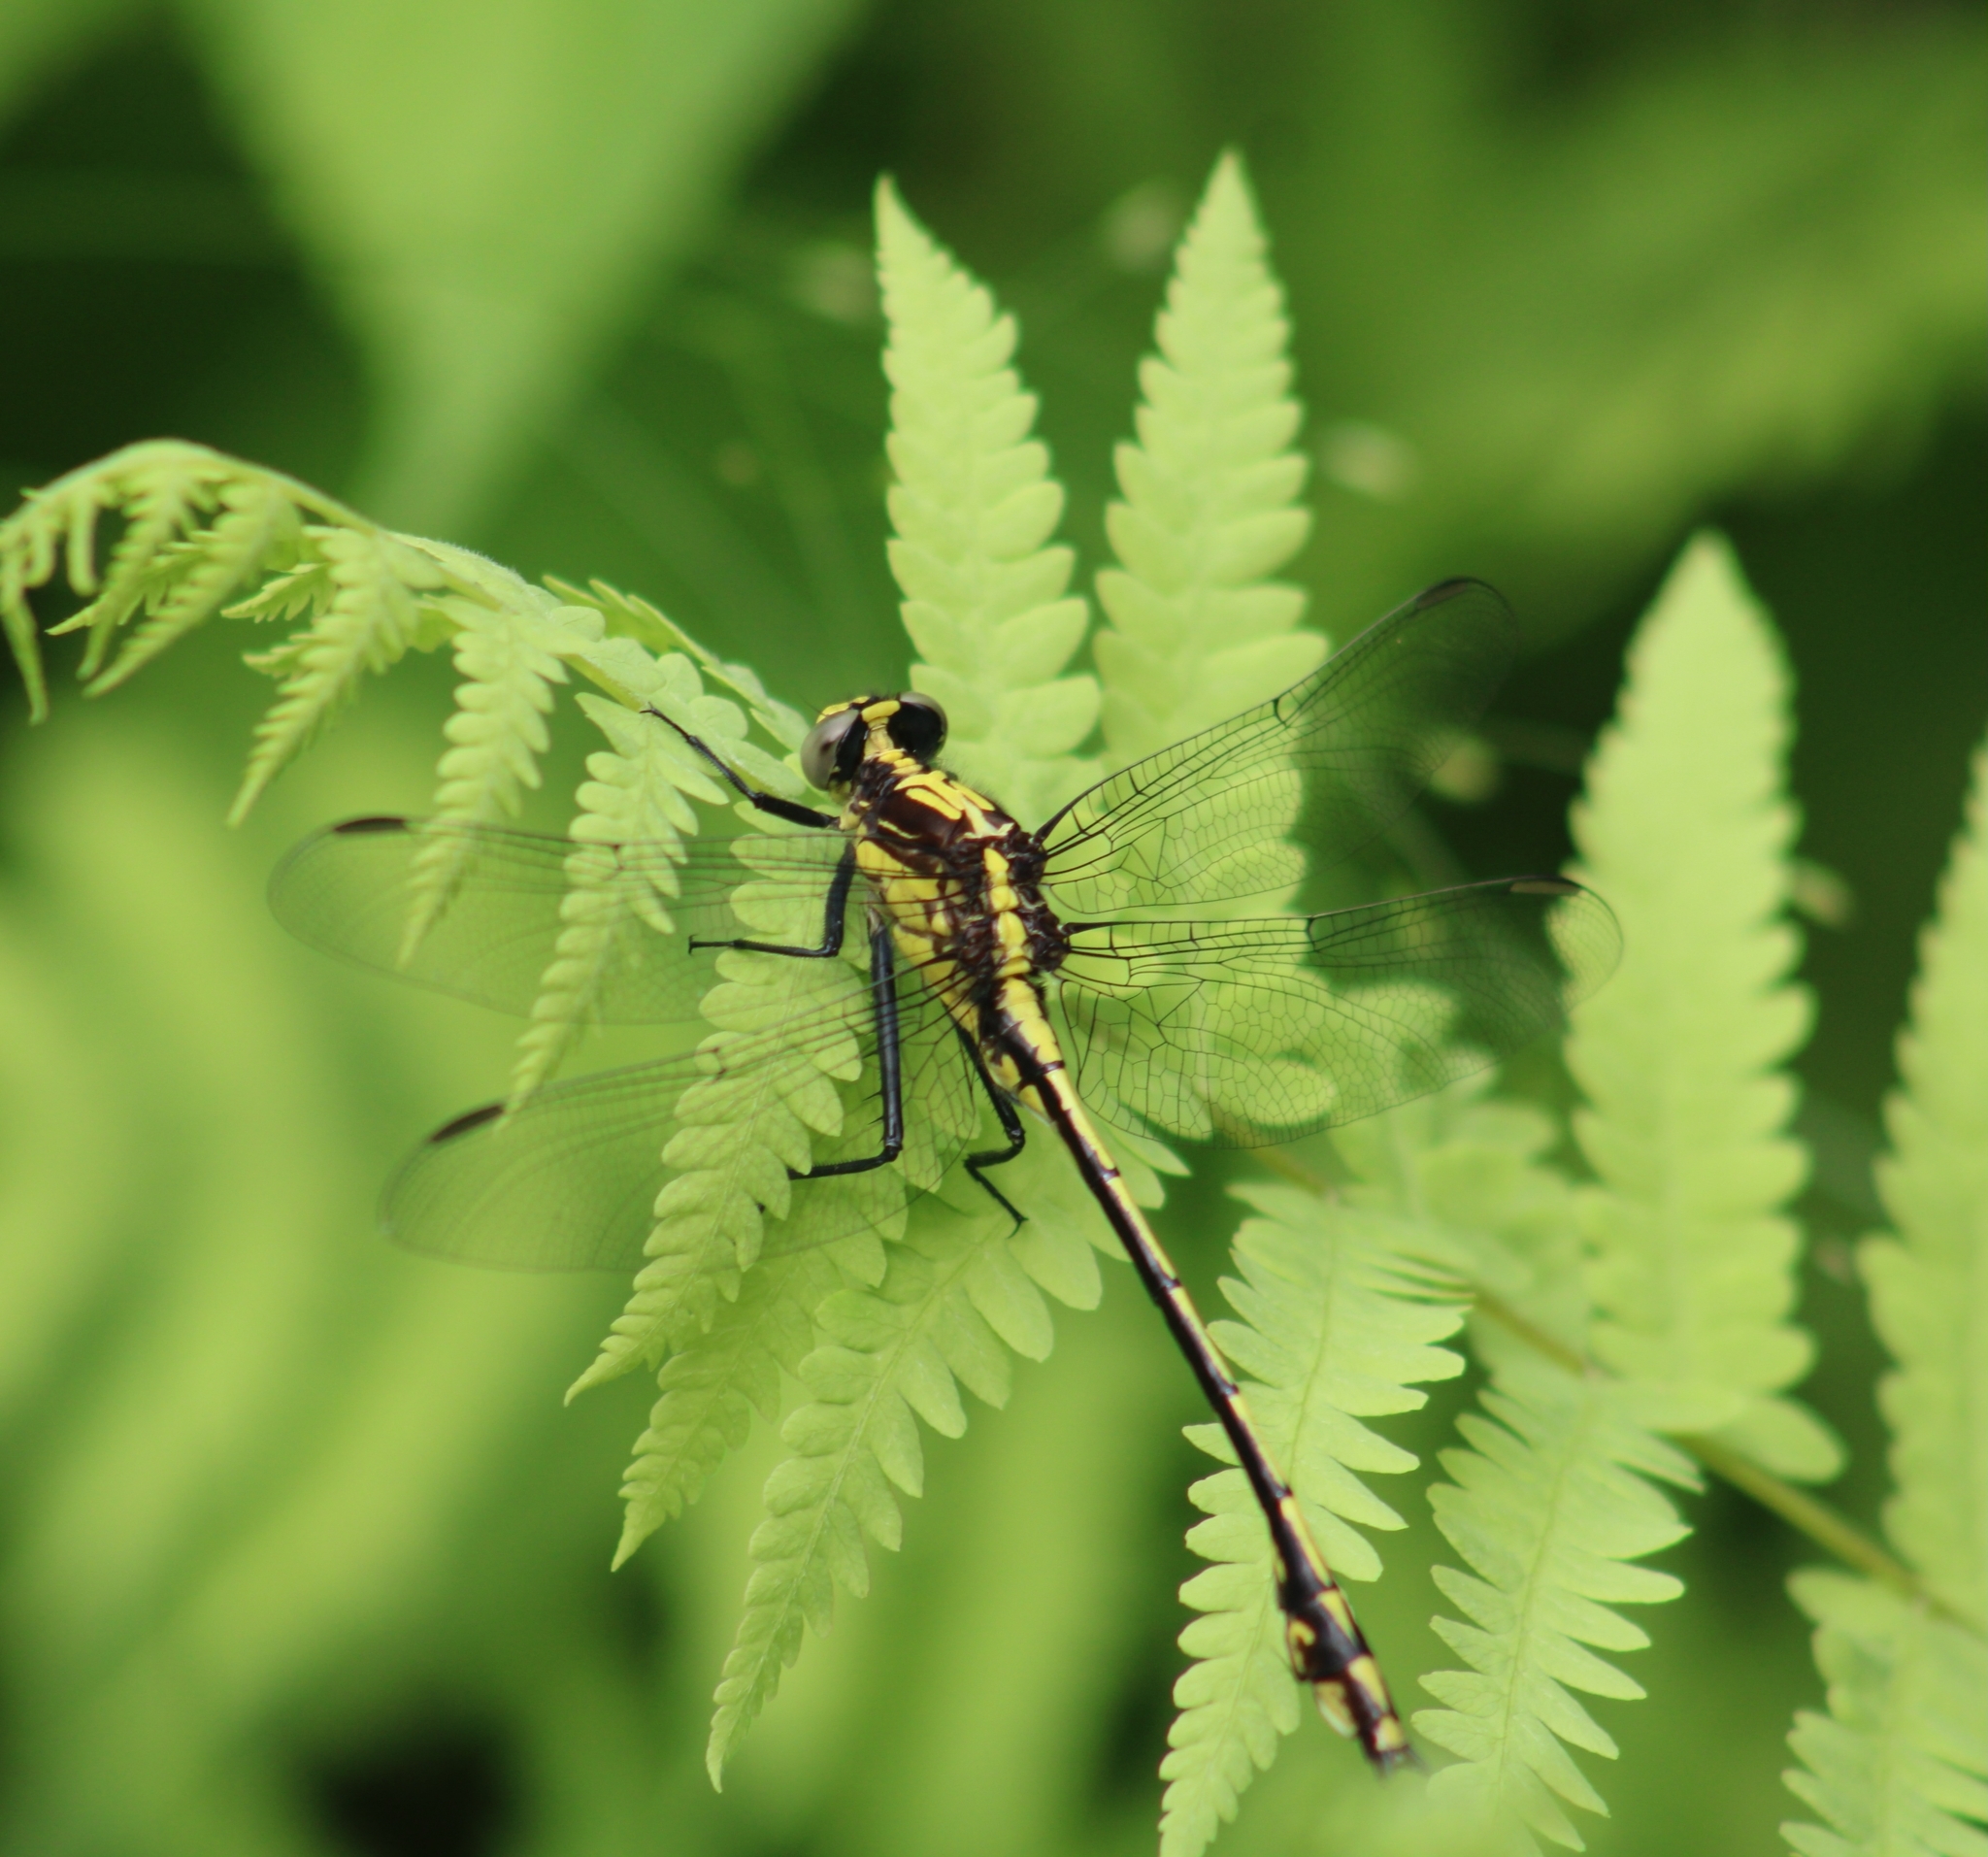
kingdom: Animalia
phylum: Arthropoda
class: Insecta
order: Odonata
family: Gomphidae
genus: Dromogomphus
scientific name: Dromogomphus spinosus
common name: Black-shouldered spinyleg
